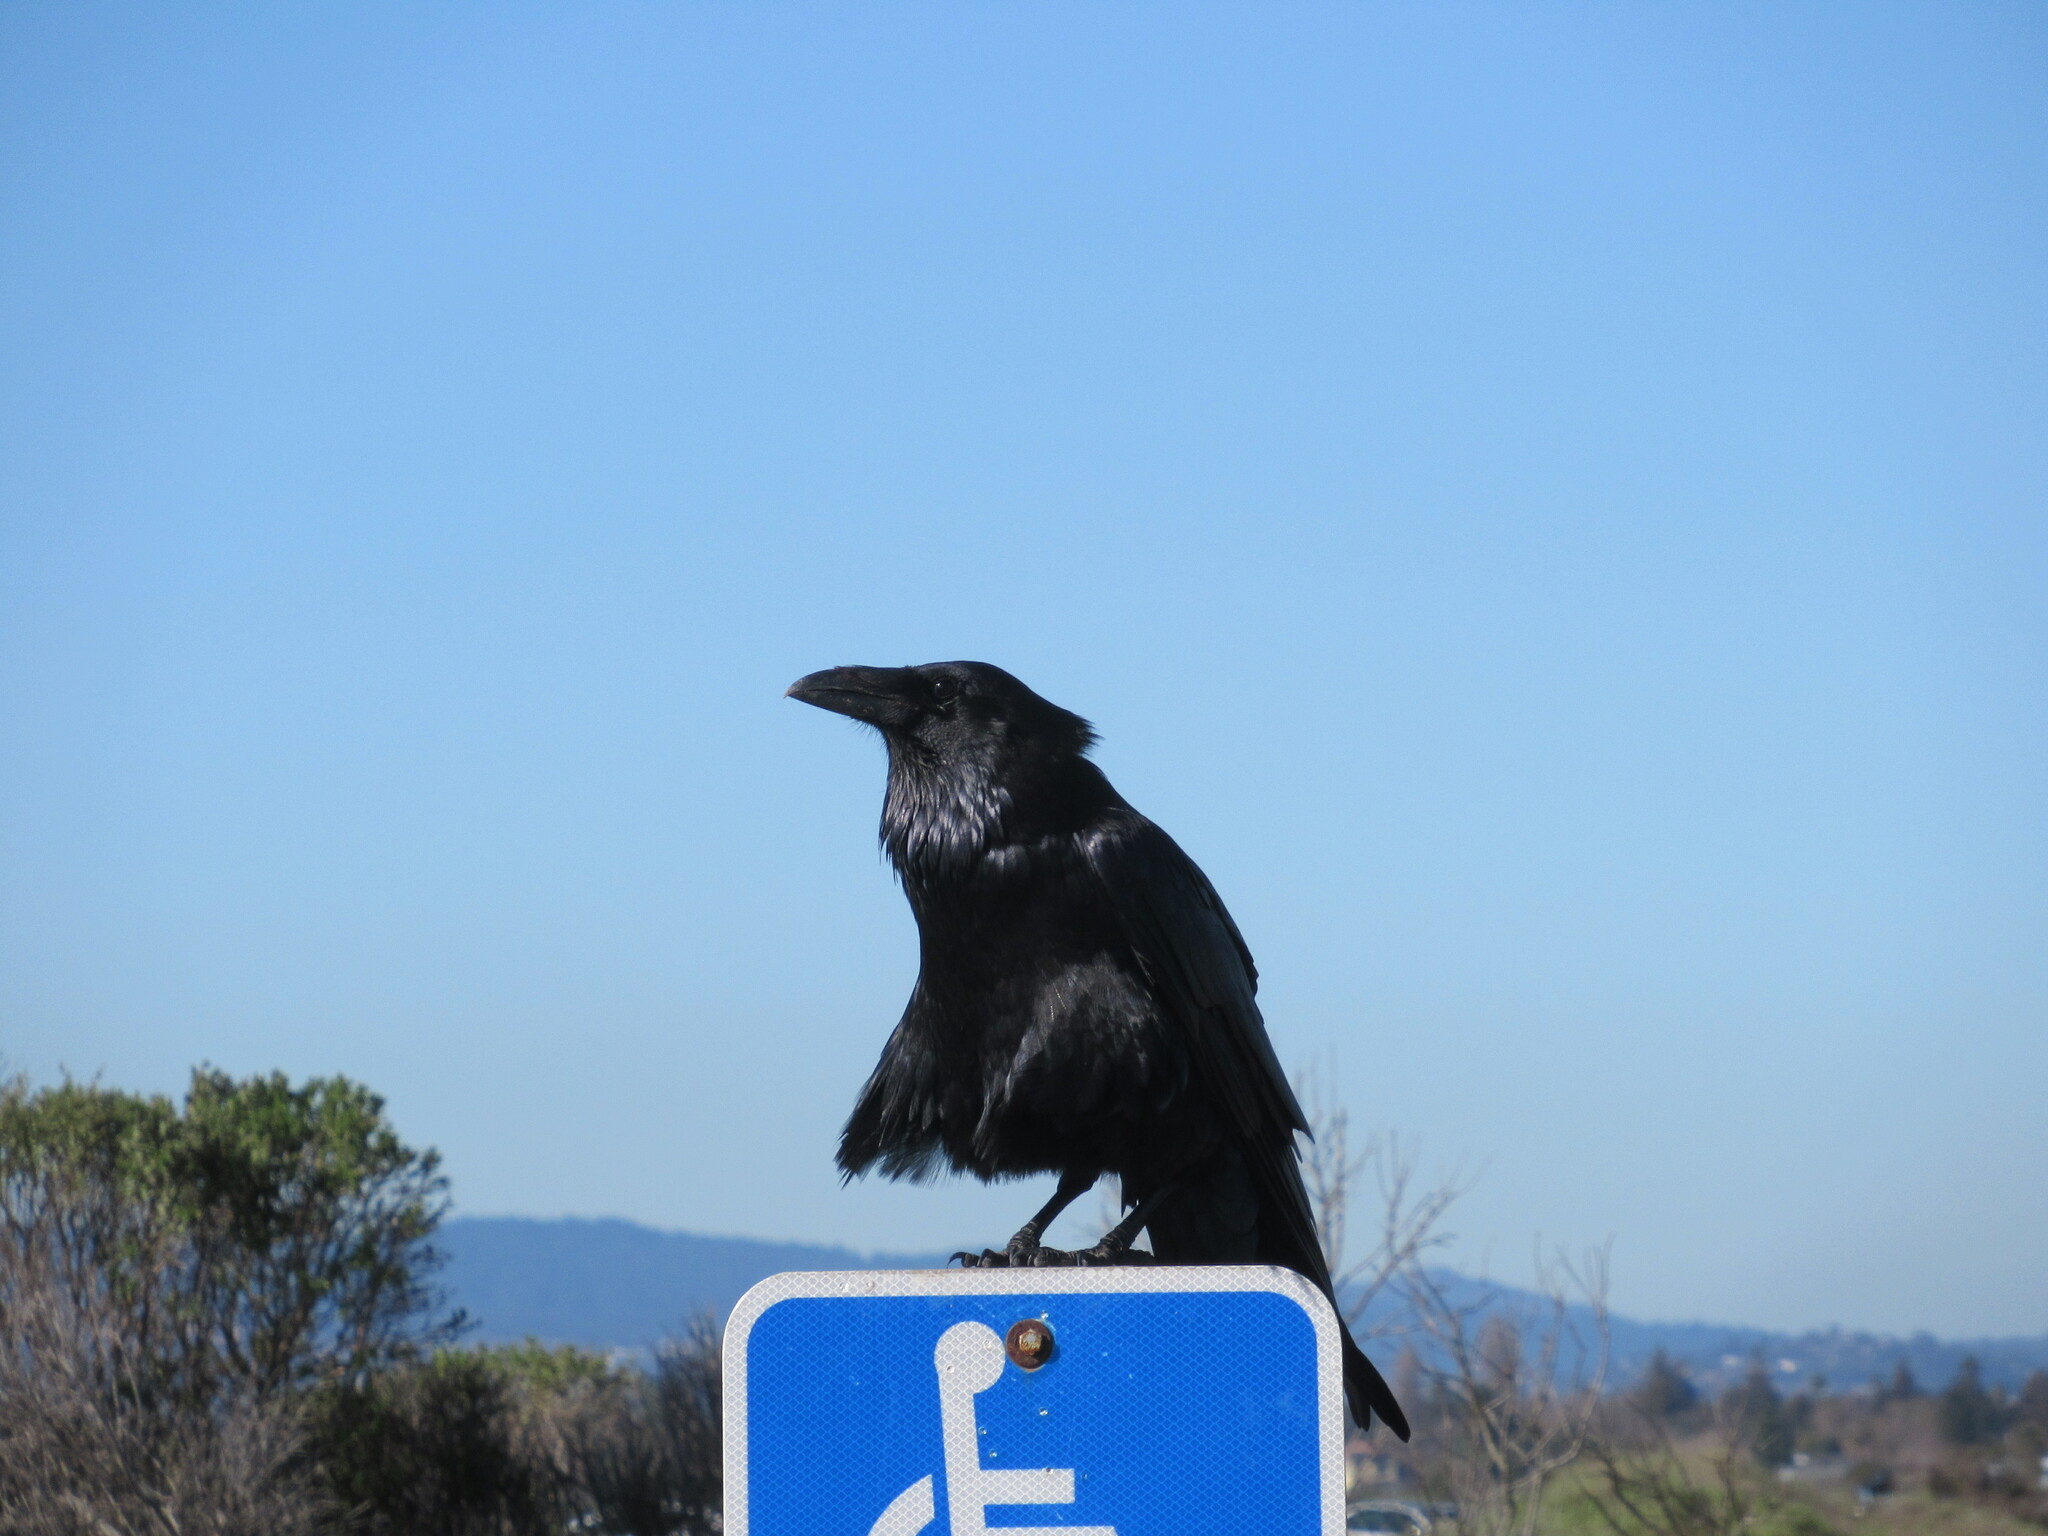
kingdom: Animalia
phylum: Chordata
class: Aves
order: Passeriformes
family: Corvidae
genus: Corvus
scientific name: Corvus corax
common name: Common raven
